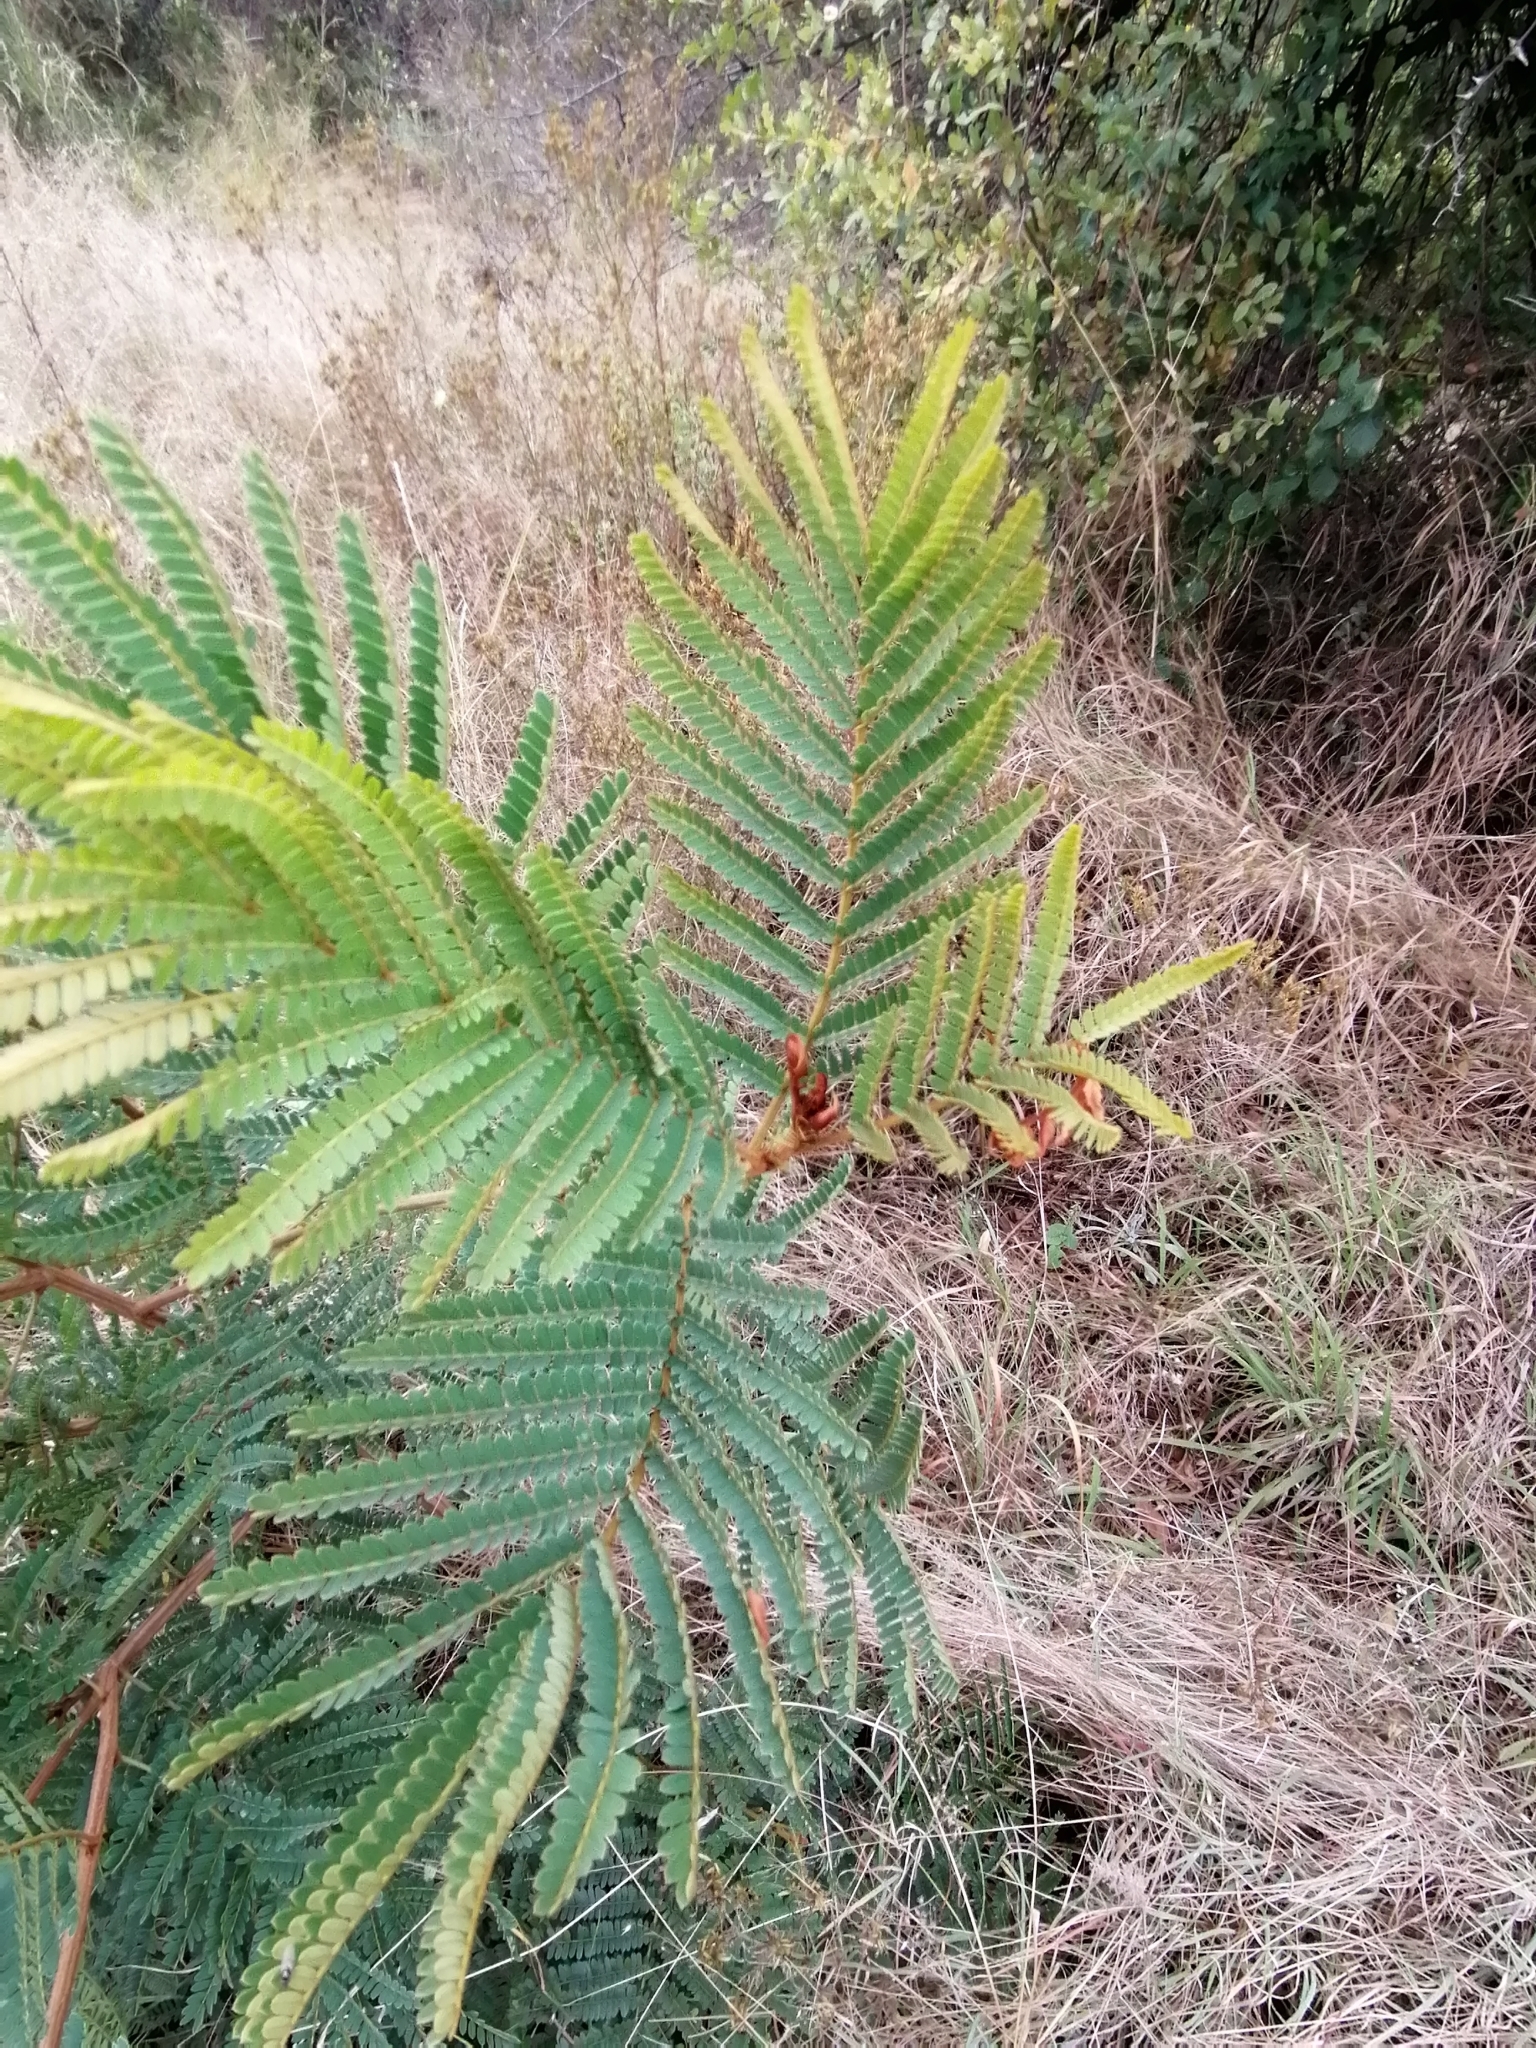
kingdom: Plantae
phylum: Tracheophyta
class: Magnoliopsida
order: Fabales
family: Fabaceae
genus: Peltophorum
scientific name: Peltophorum africanum
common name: African black wattle
